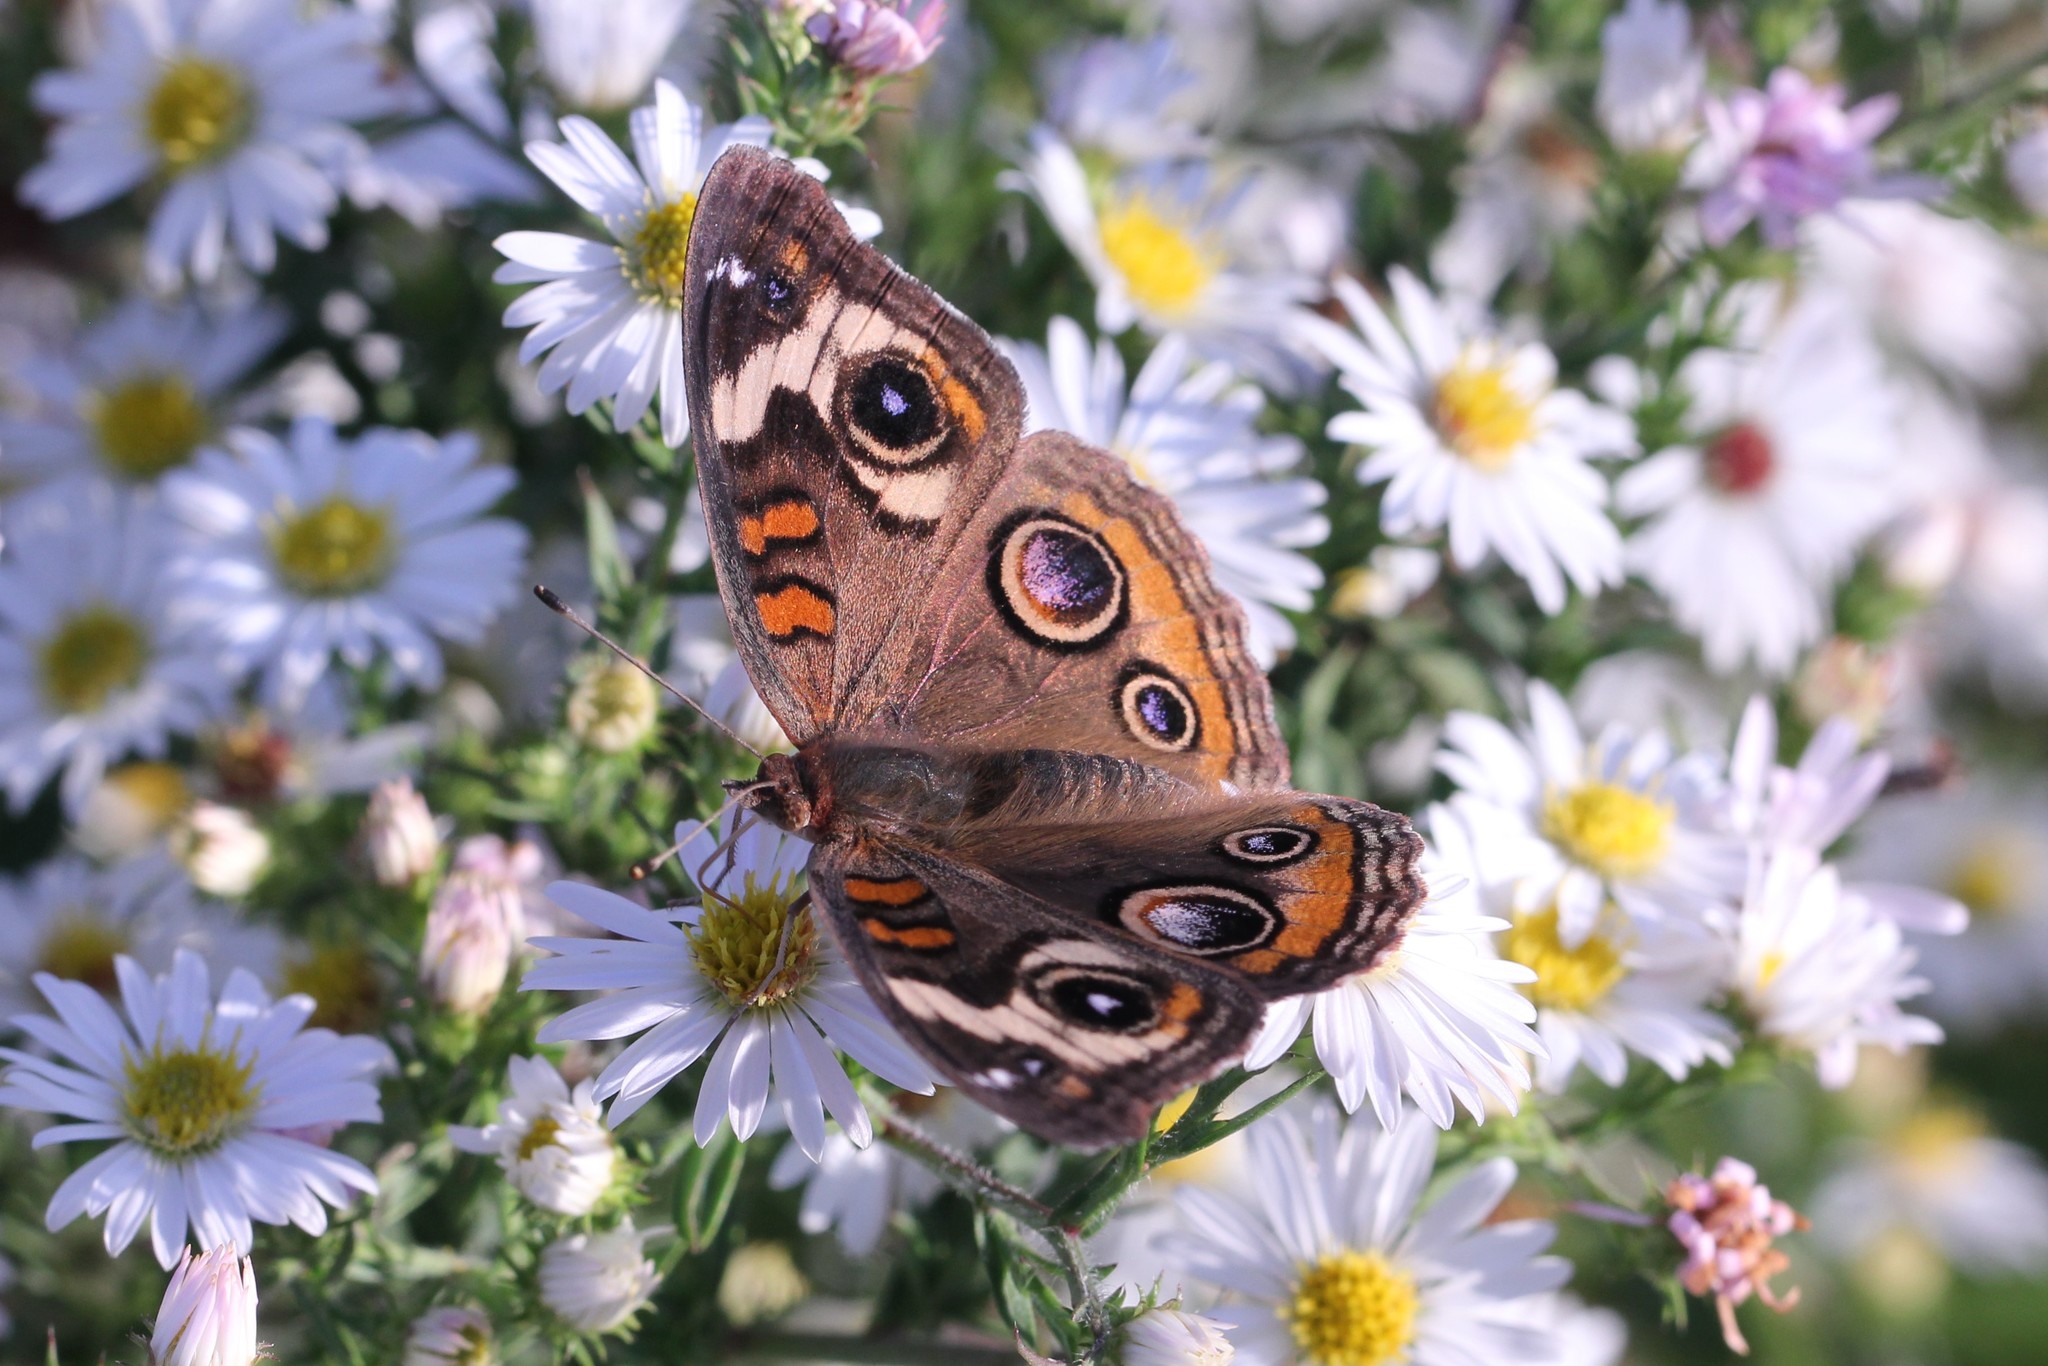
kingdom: Animalia
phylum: Arthropoda
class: Insecta
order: Lepidoptera
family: Nymphalidae
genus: Junonia
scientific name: Junonia coenia
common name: Common buckeye
